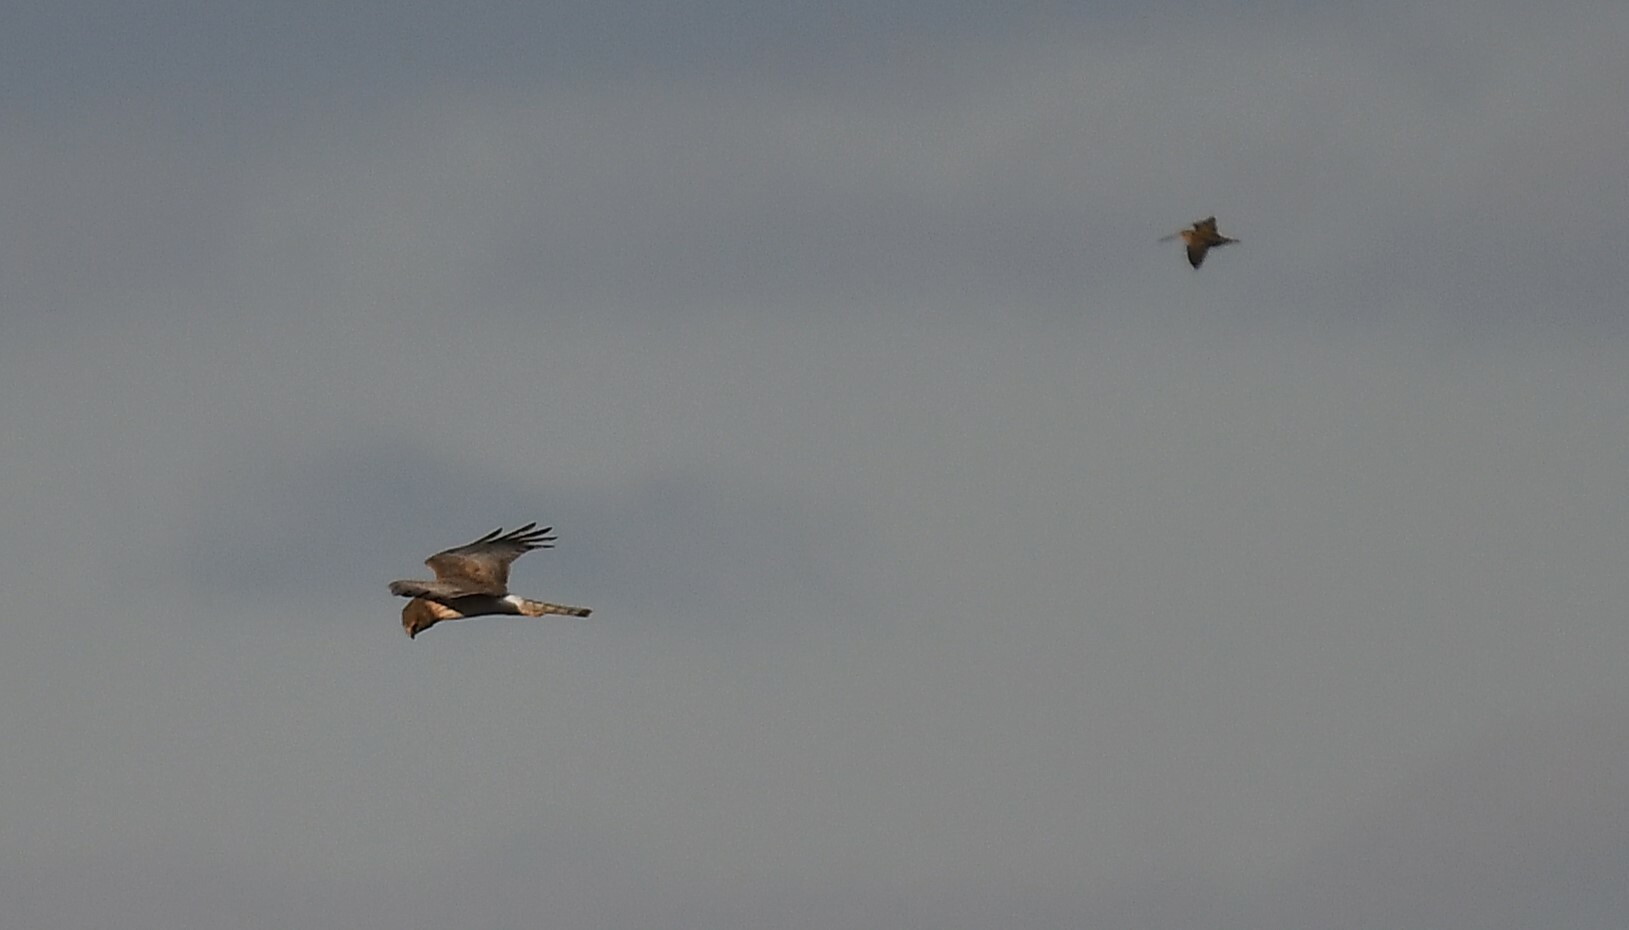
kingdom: Animalia
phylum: Chordata
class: Aves
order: Accipitriformes
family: Accipitridae
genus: Circus
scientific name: Circus cyaneus
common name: Hen harrier
